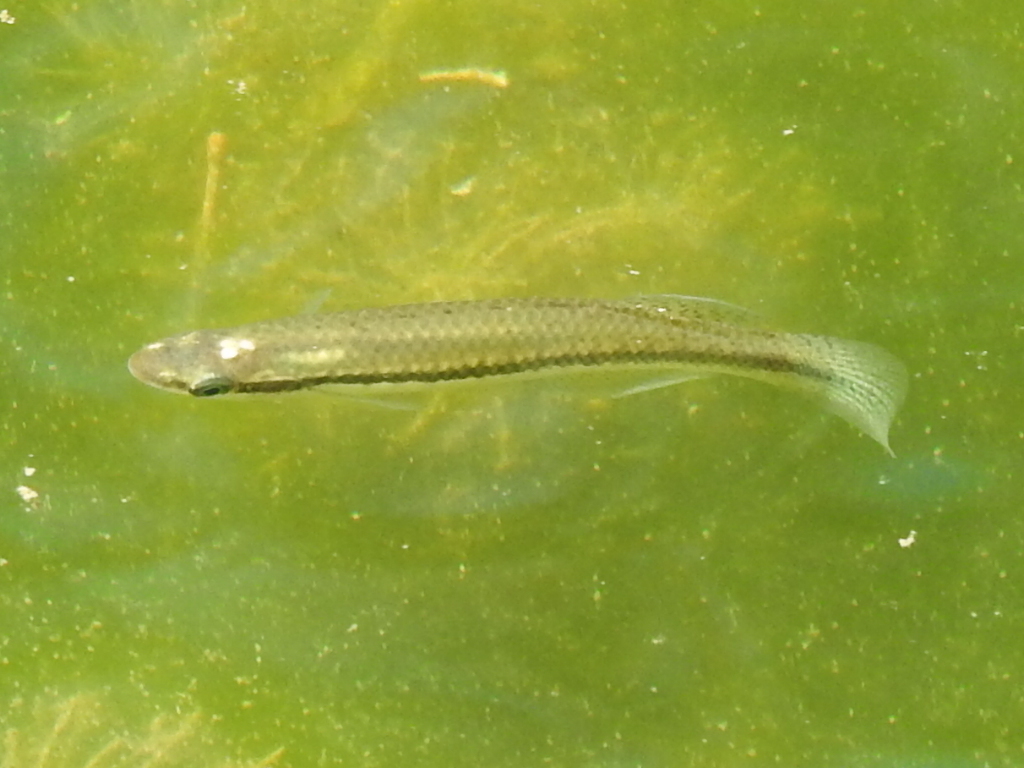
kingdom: Animalia
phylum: Chordata
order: Cyprinodontiformes
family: Fundulidae
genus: Fundulus
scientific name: Fundulus notatus
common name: Blackstripe topminnow
